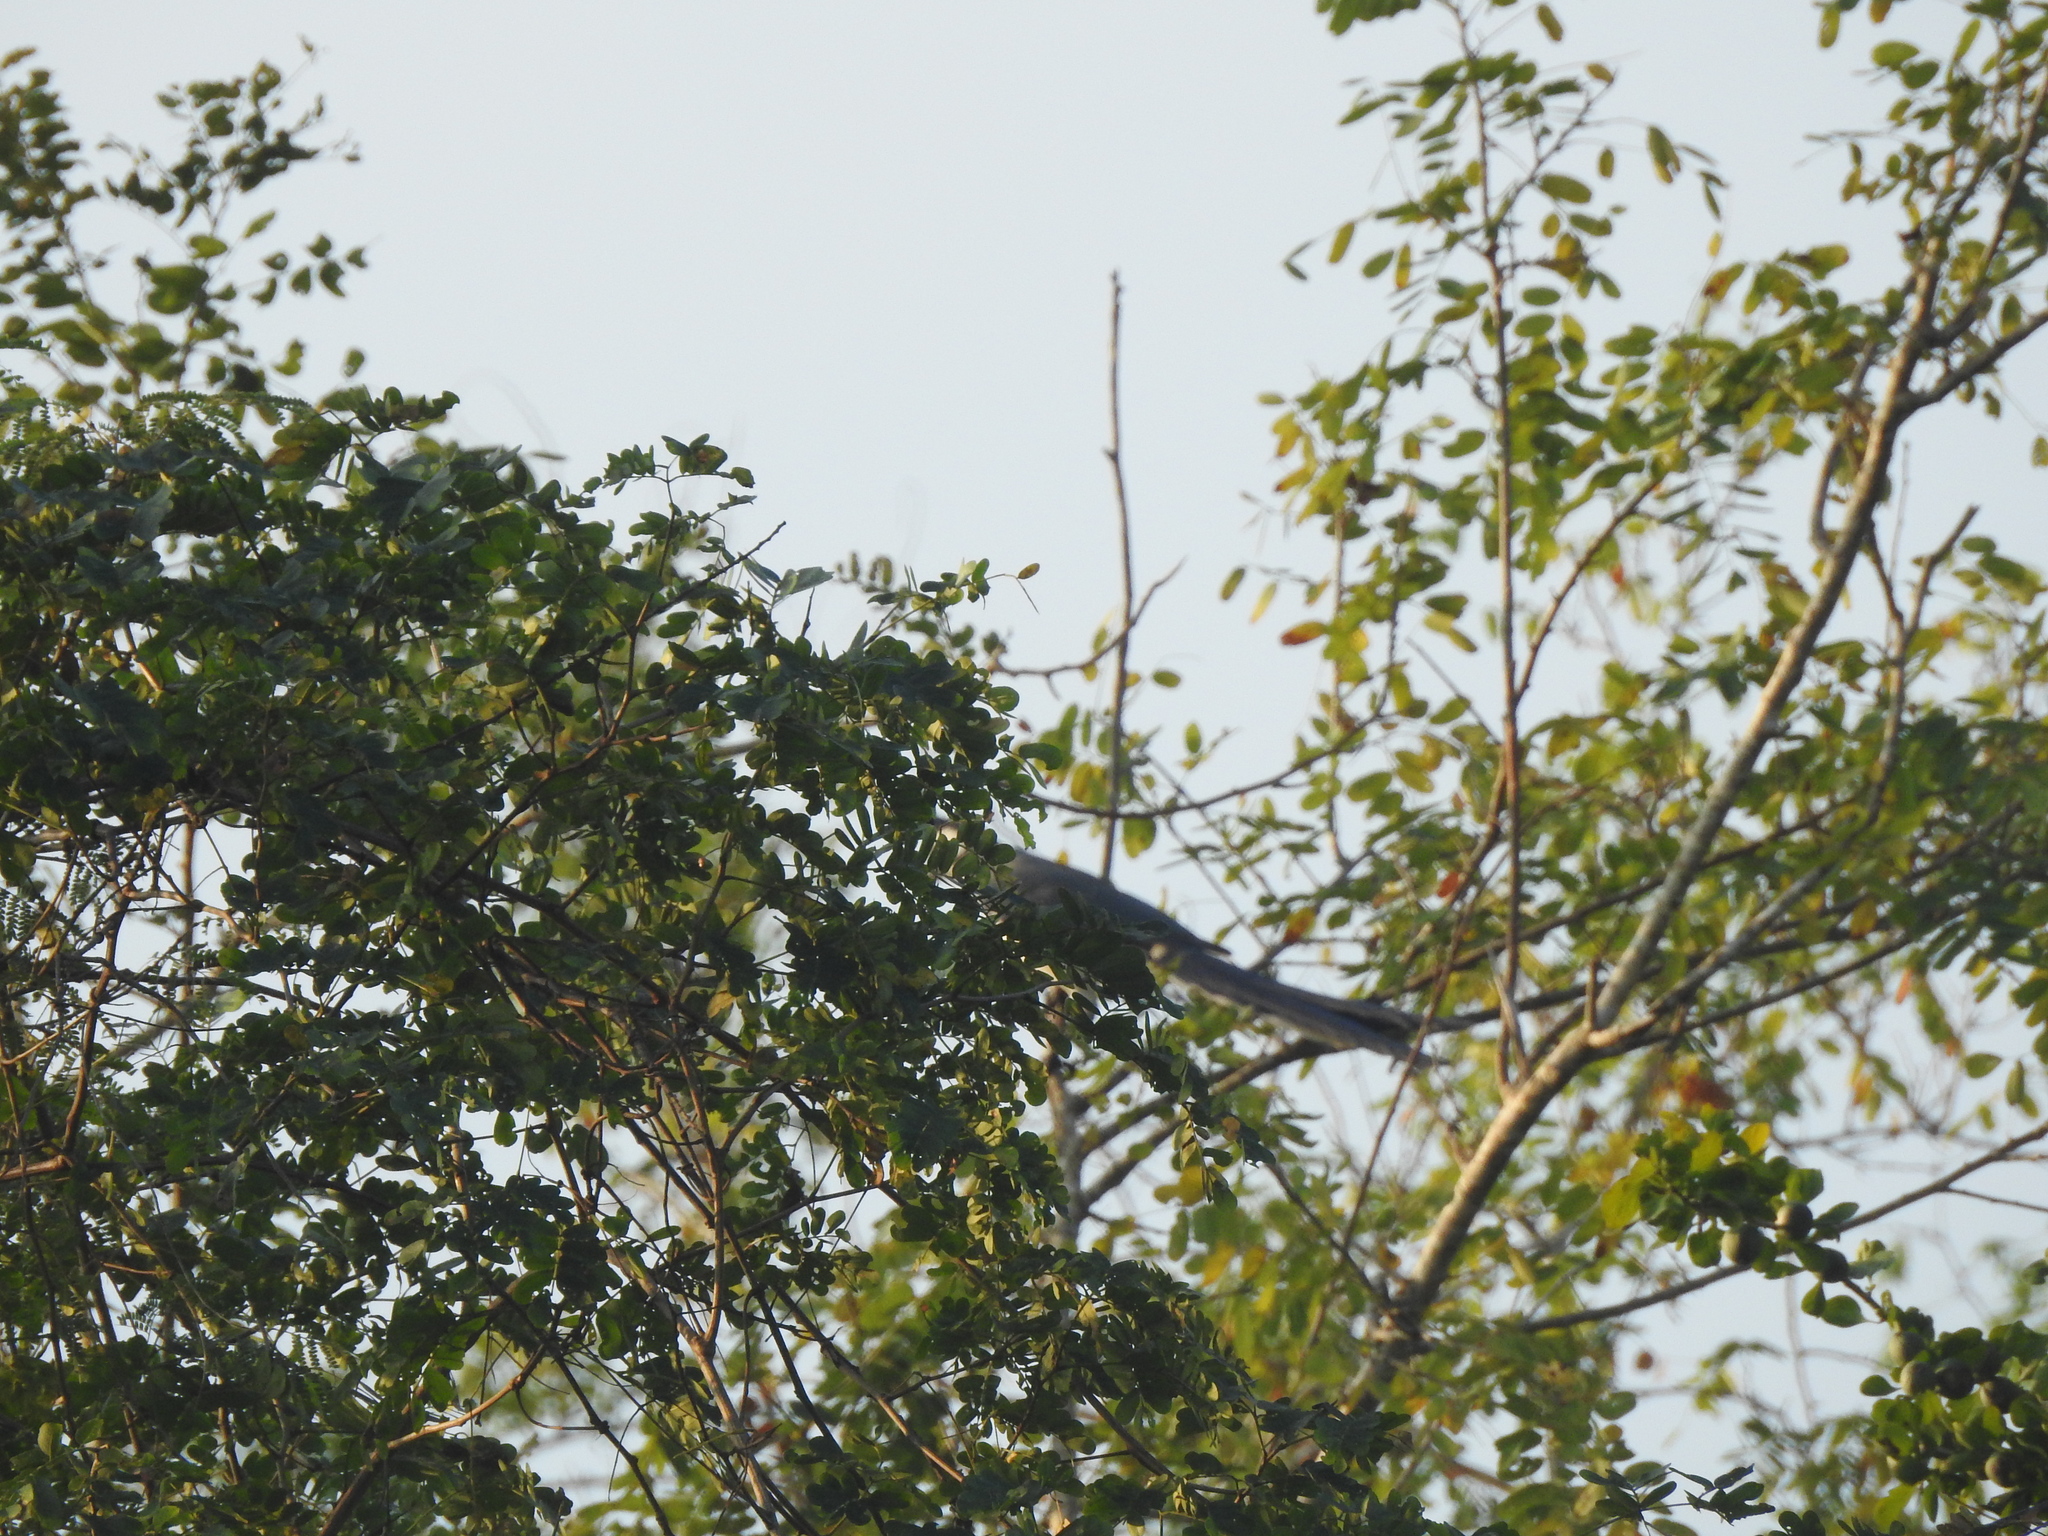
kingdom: Animalia
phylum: Chordata
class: Aves
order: Passeriformes
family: Corvidae
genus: Calocitta
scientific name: Calocitta formosa
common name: White-throated magpie-jay
